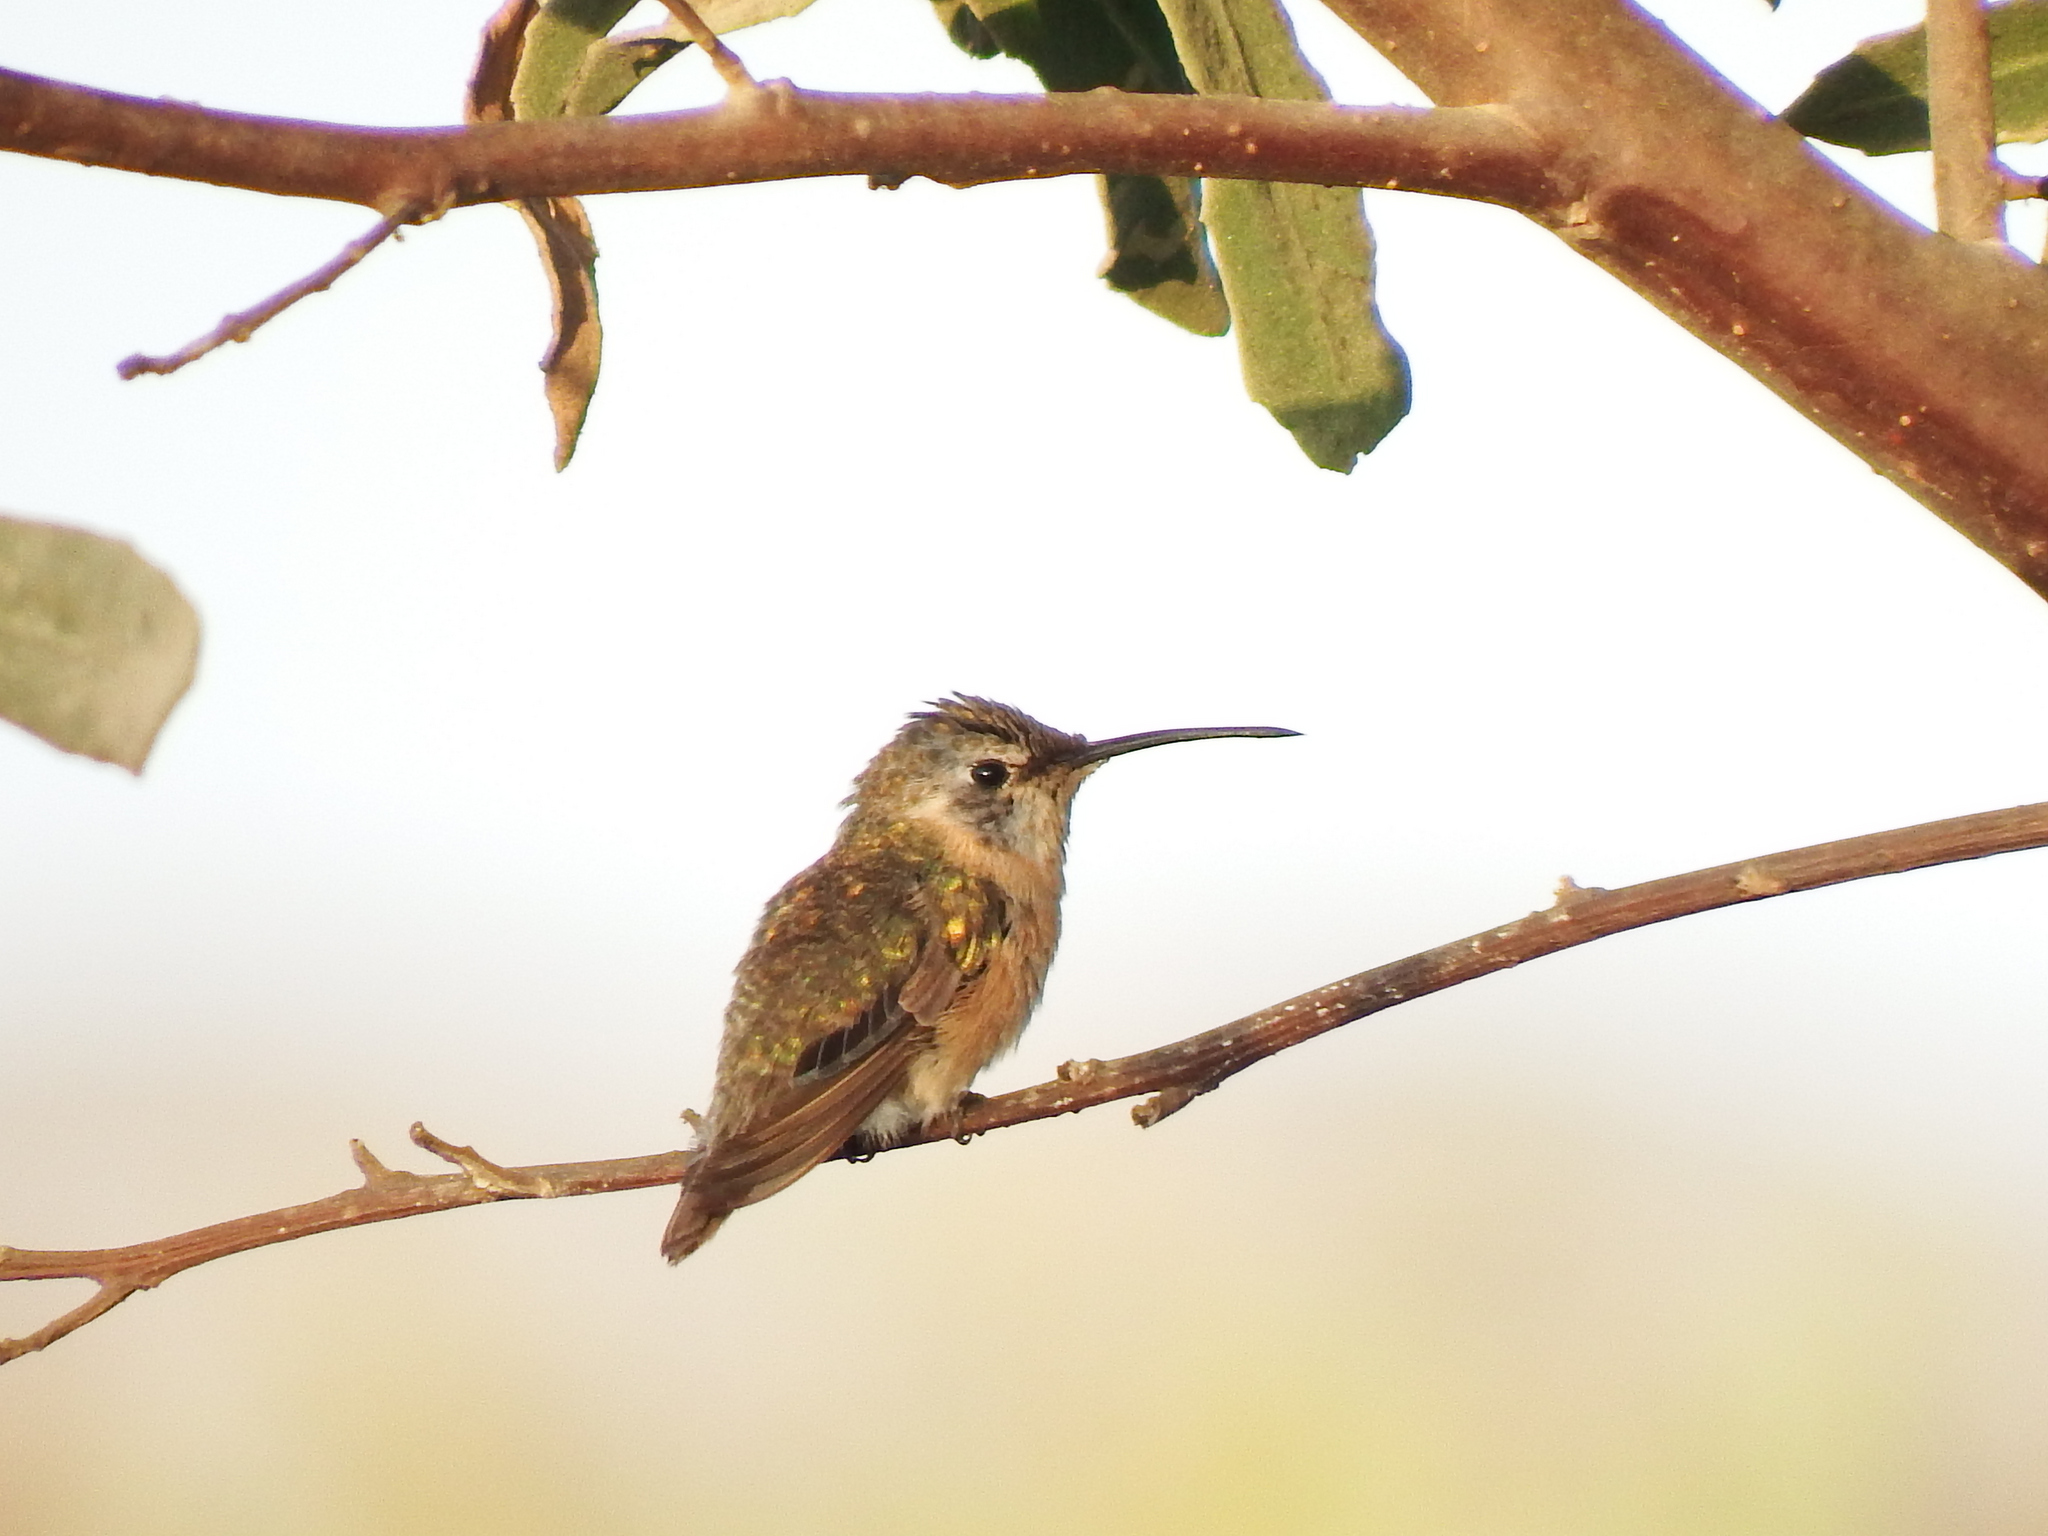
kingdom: Animalia
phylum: Chordata
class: Aves
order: Apodiformes
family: Trochilidae
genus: Rhodopis
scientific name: Rhodopis vesper
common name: Oasis hummingbird
